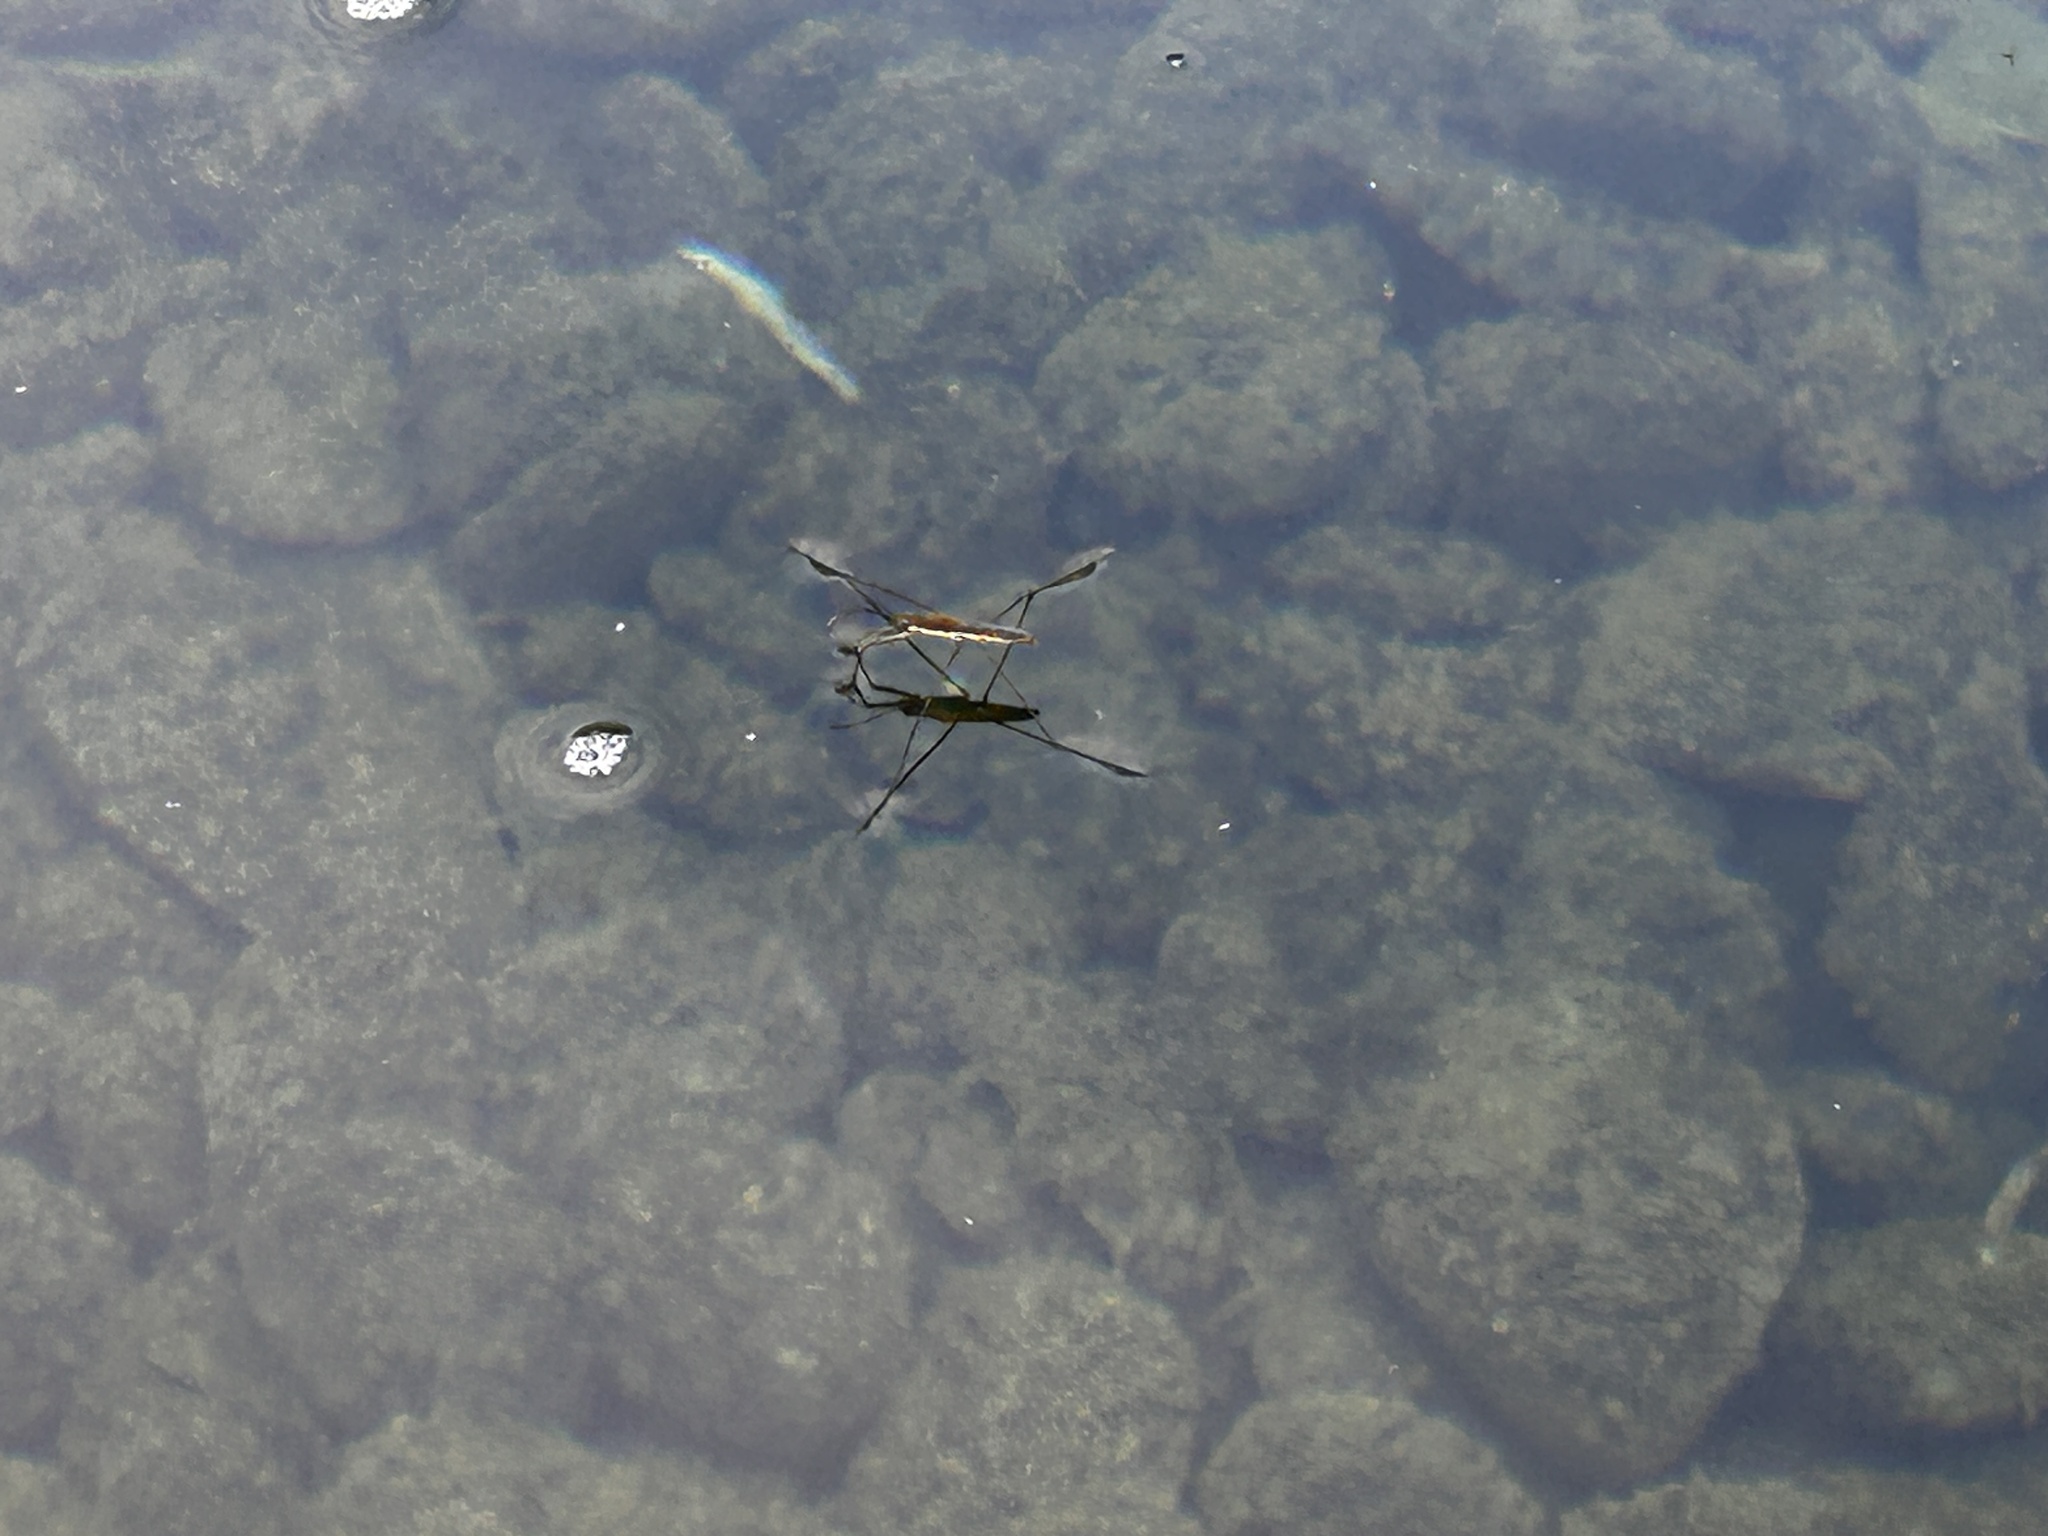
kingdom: Animalia
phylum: Arthropoda
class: Insecta
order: Hemiptera
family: Gerridae
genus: Aquarius
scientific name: Aquarius paludum
